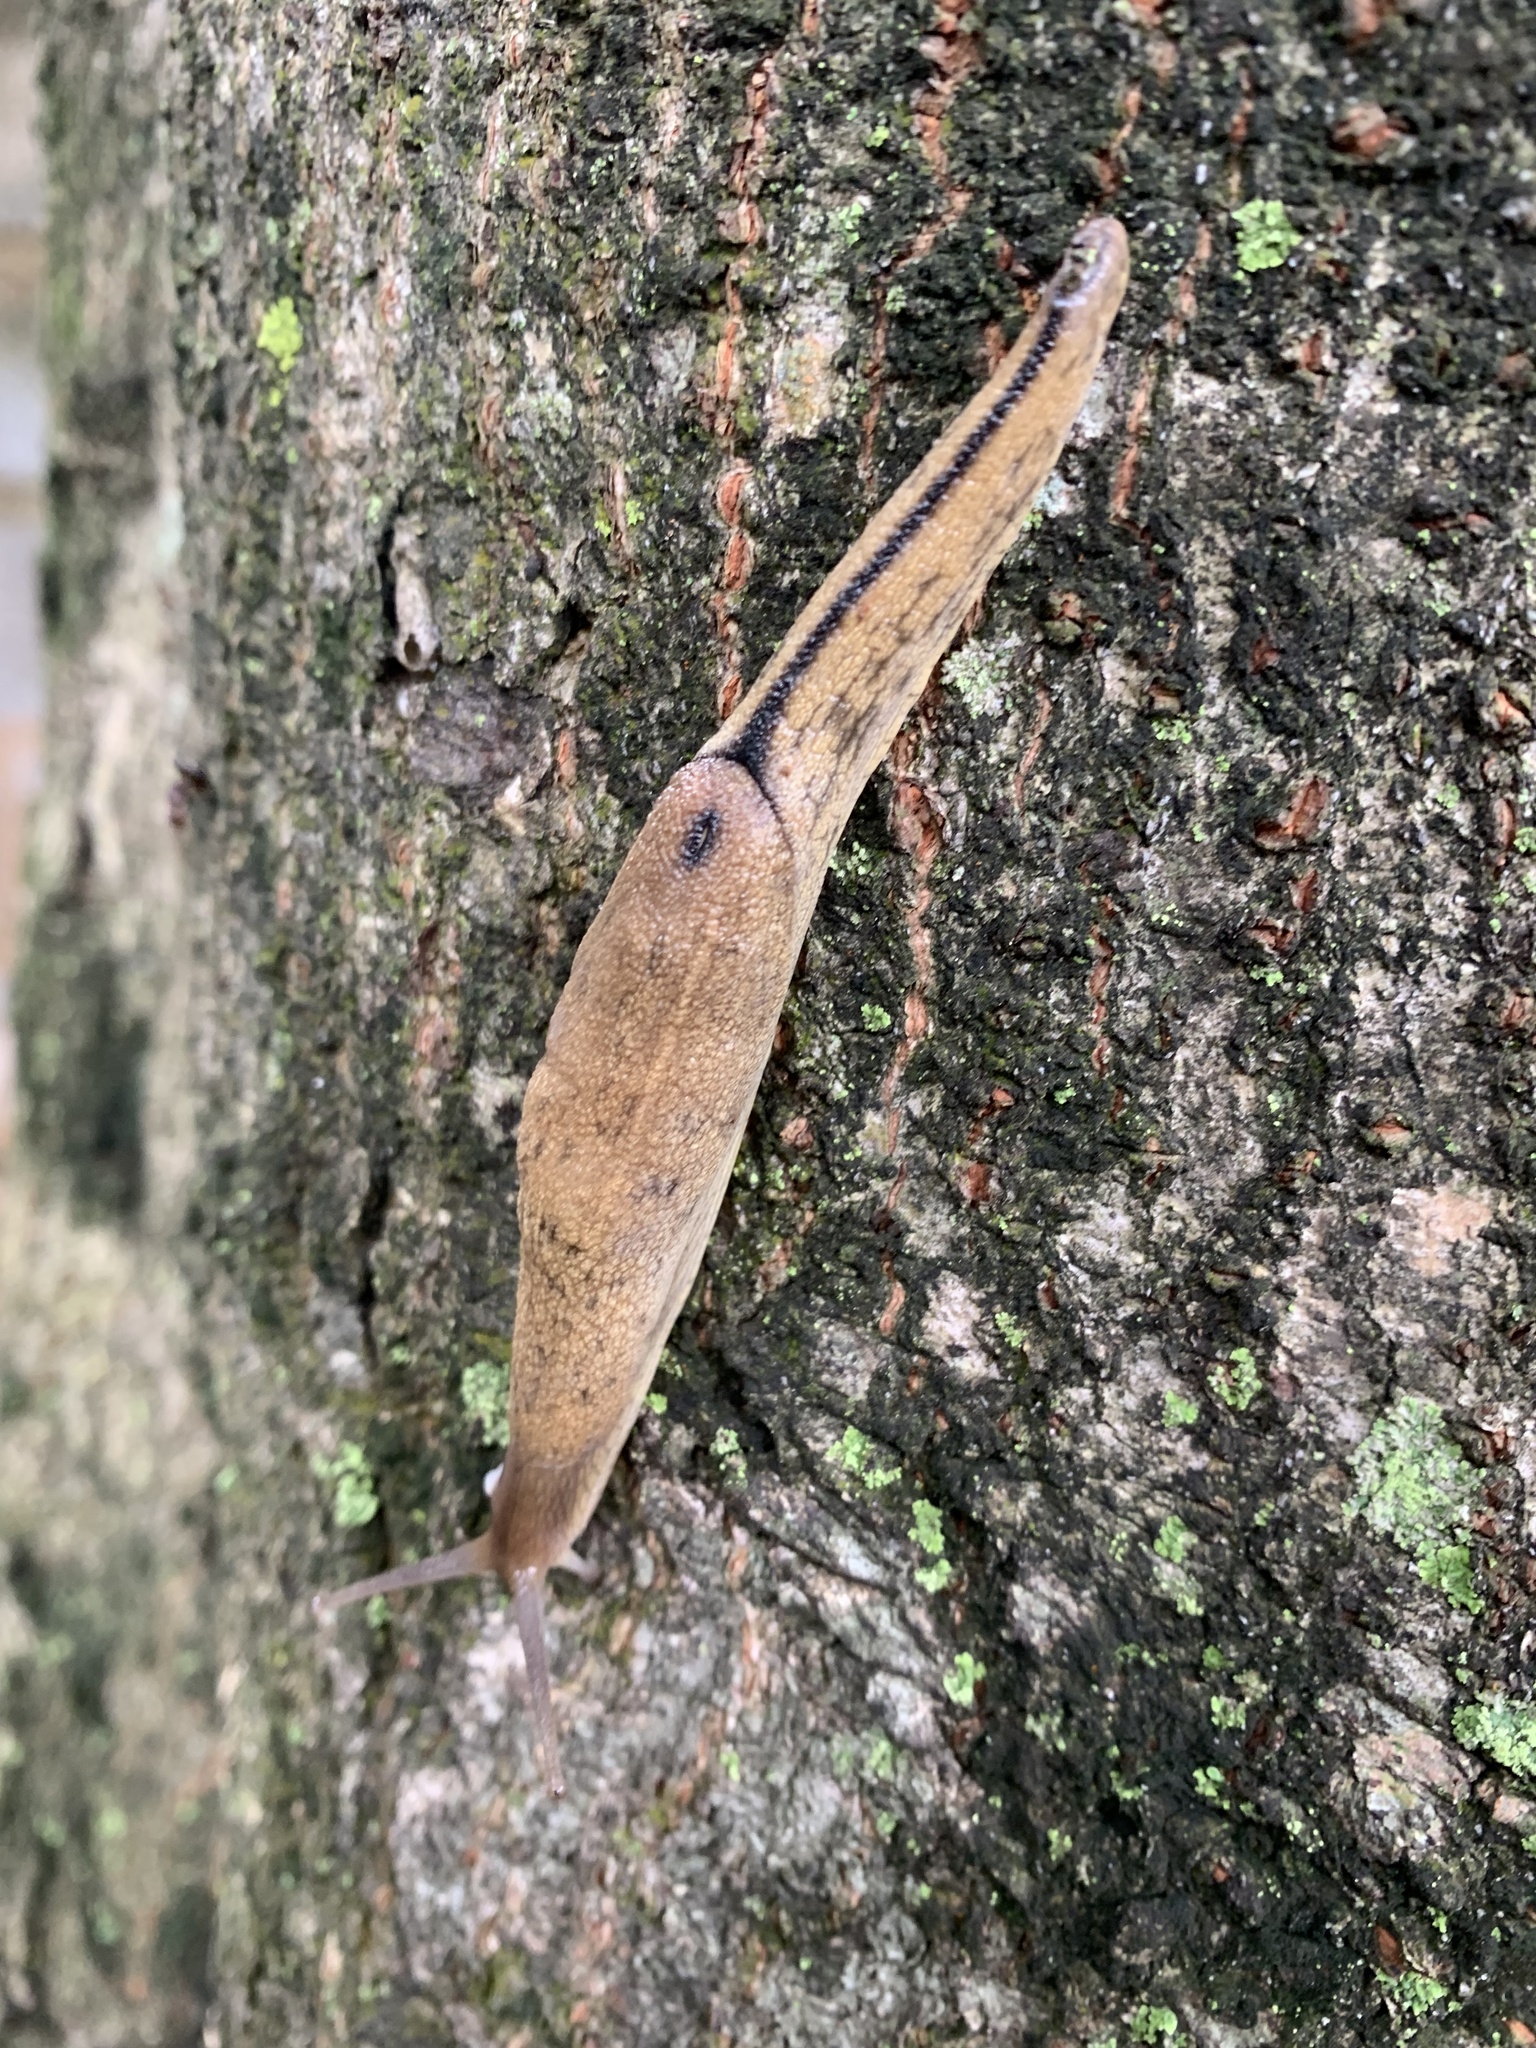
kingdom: Animalia
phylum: Mollusca
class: Gastropoda
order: Stylommatophora
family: Ariophantidae
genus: Mariaella
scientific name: Mariaella dussumieri
